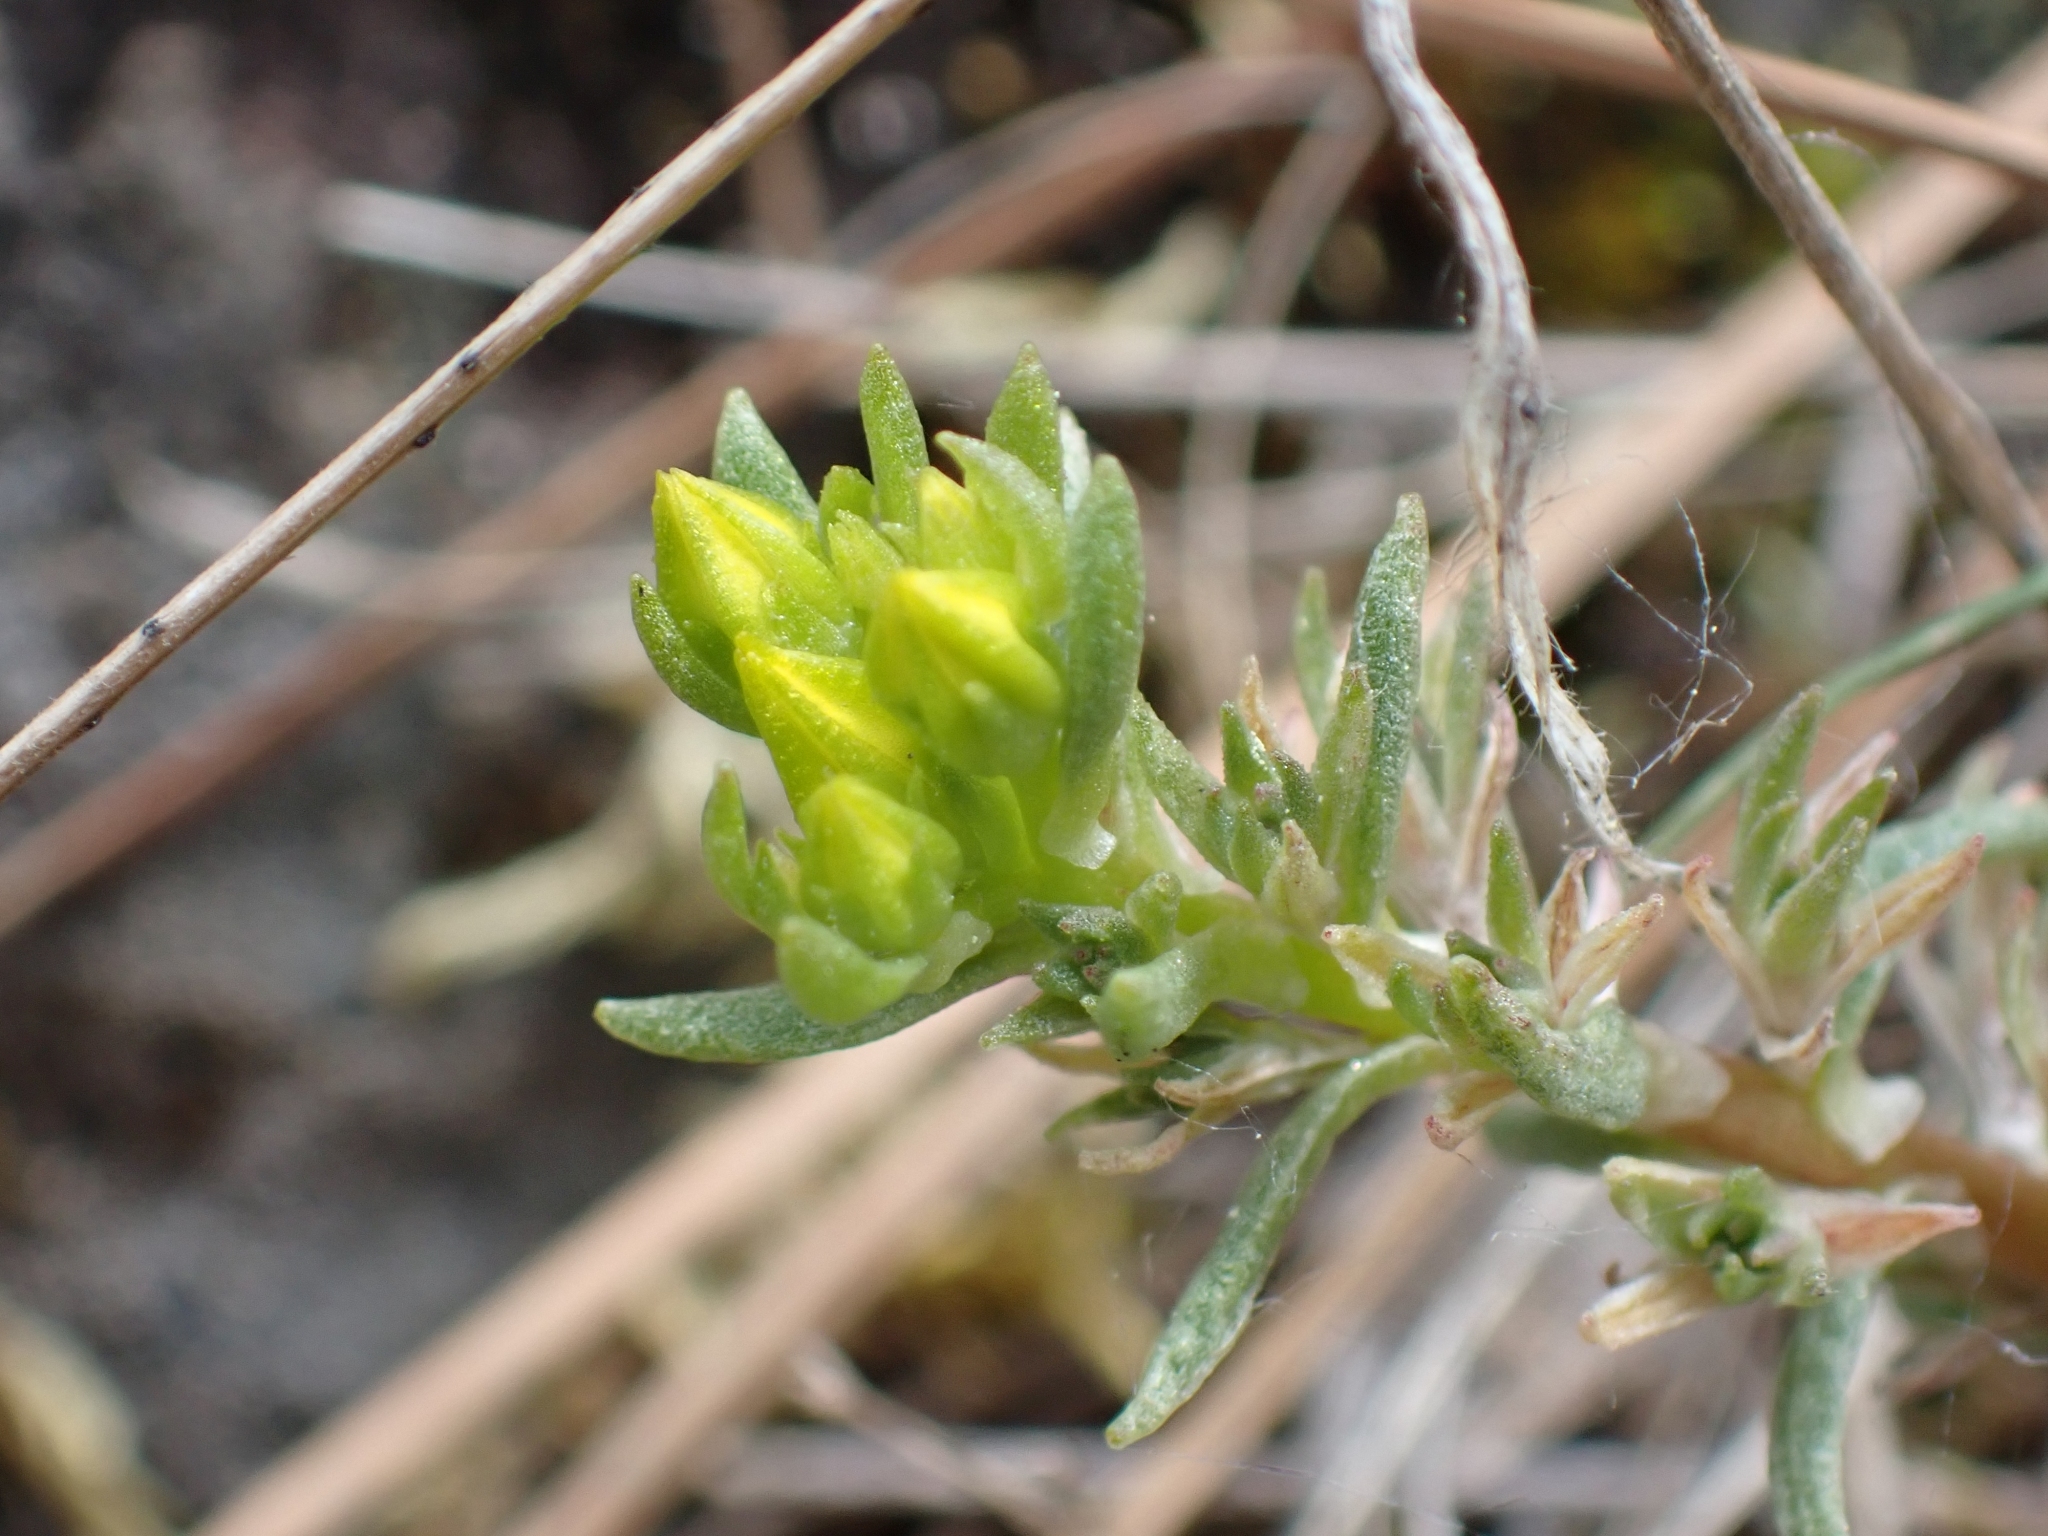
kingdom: Plantae
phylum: Tracheophyta
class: Magnoliopsida
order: Saxifragales
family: Crassulaceae
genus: Sedum
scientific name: Sedum stenopetalum
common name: Narrow-petaled stonecrop
